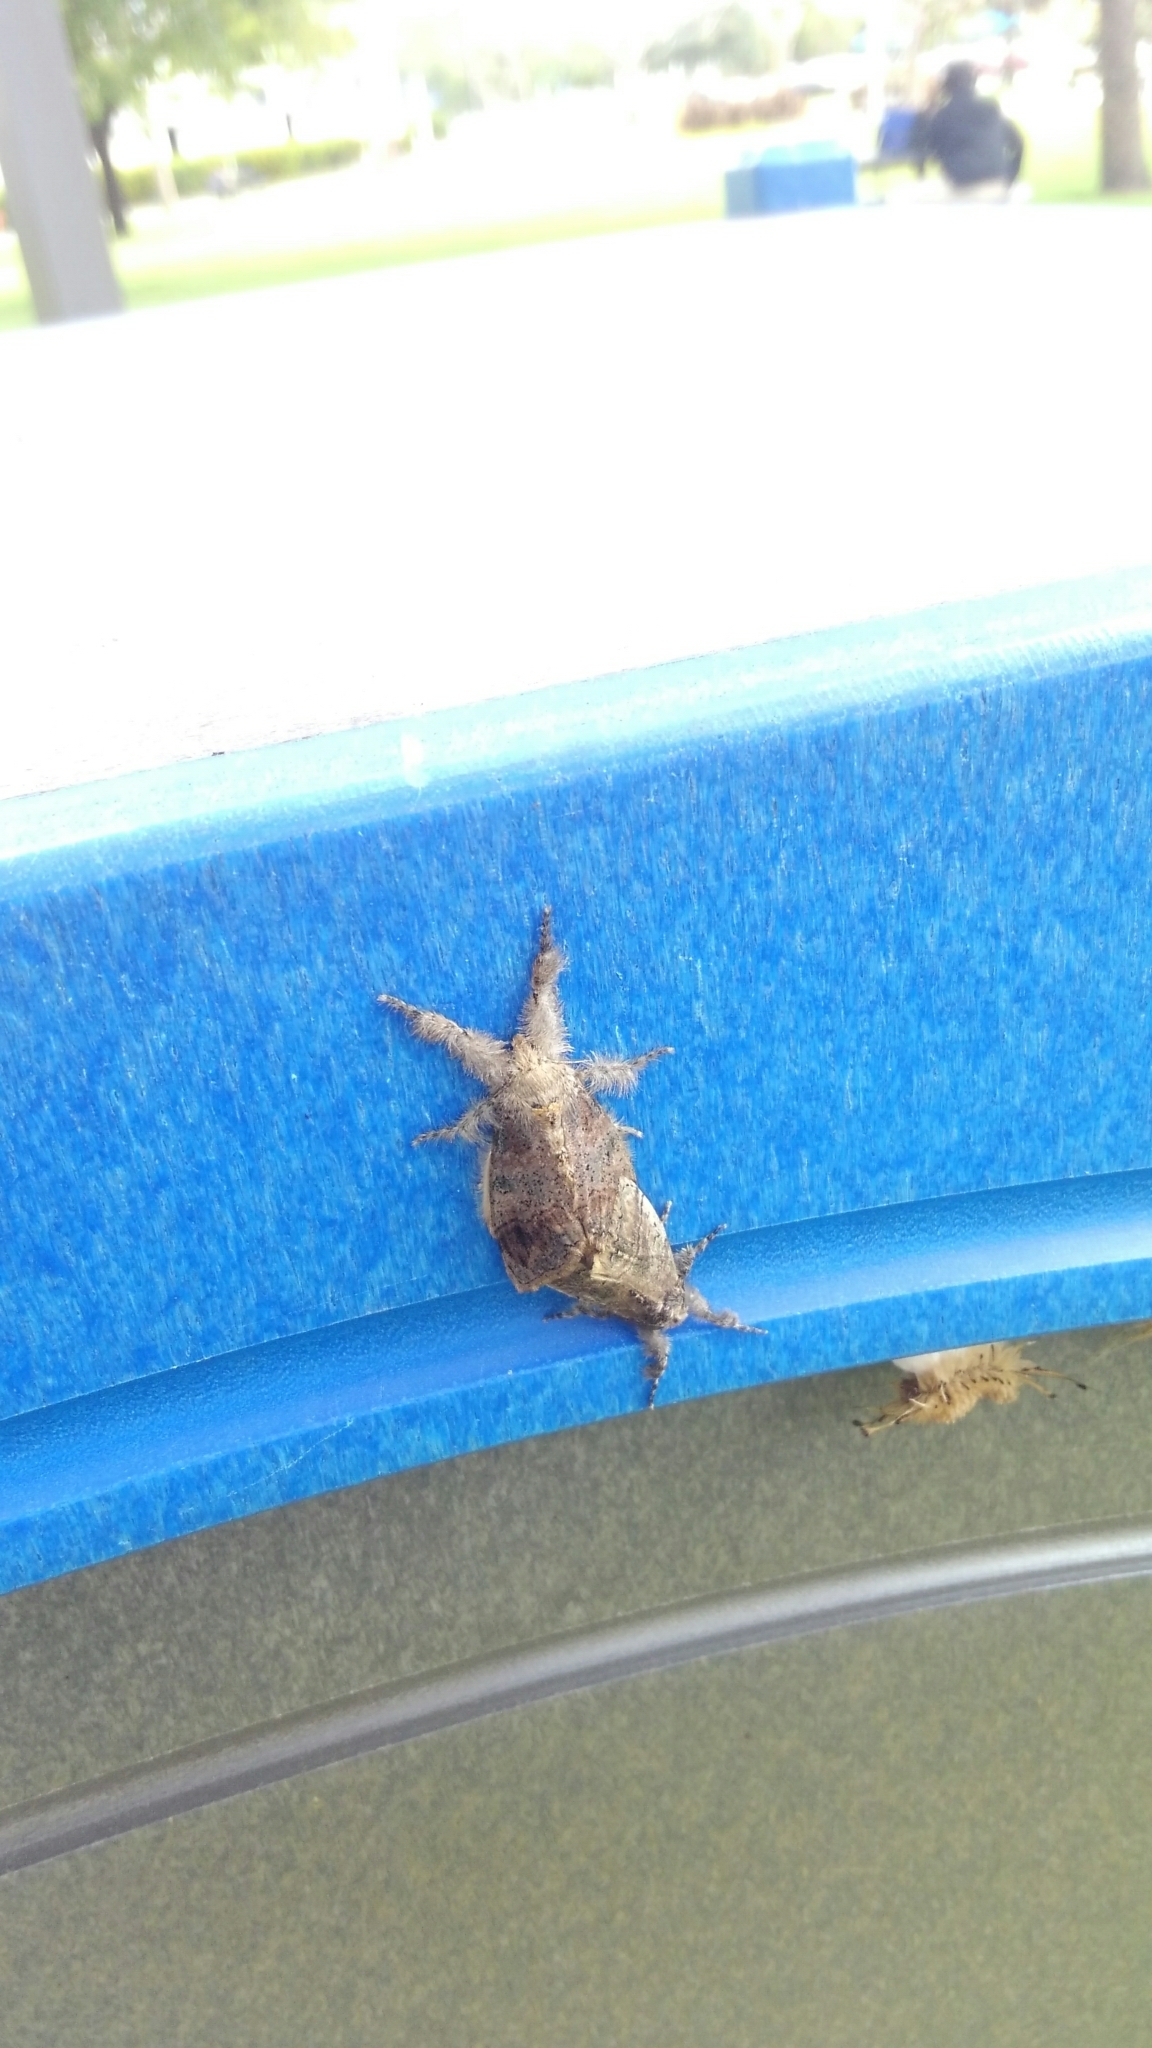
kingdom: Animalia
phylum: Arthropoda
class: Insecta
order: Lepidoptera
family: Erebidae
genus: Dasychira
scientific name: Dasychira meridionalis
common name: Southern tussock moth
